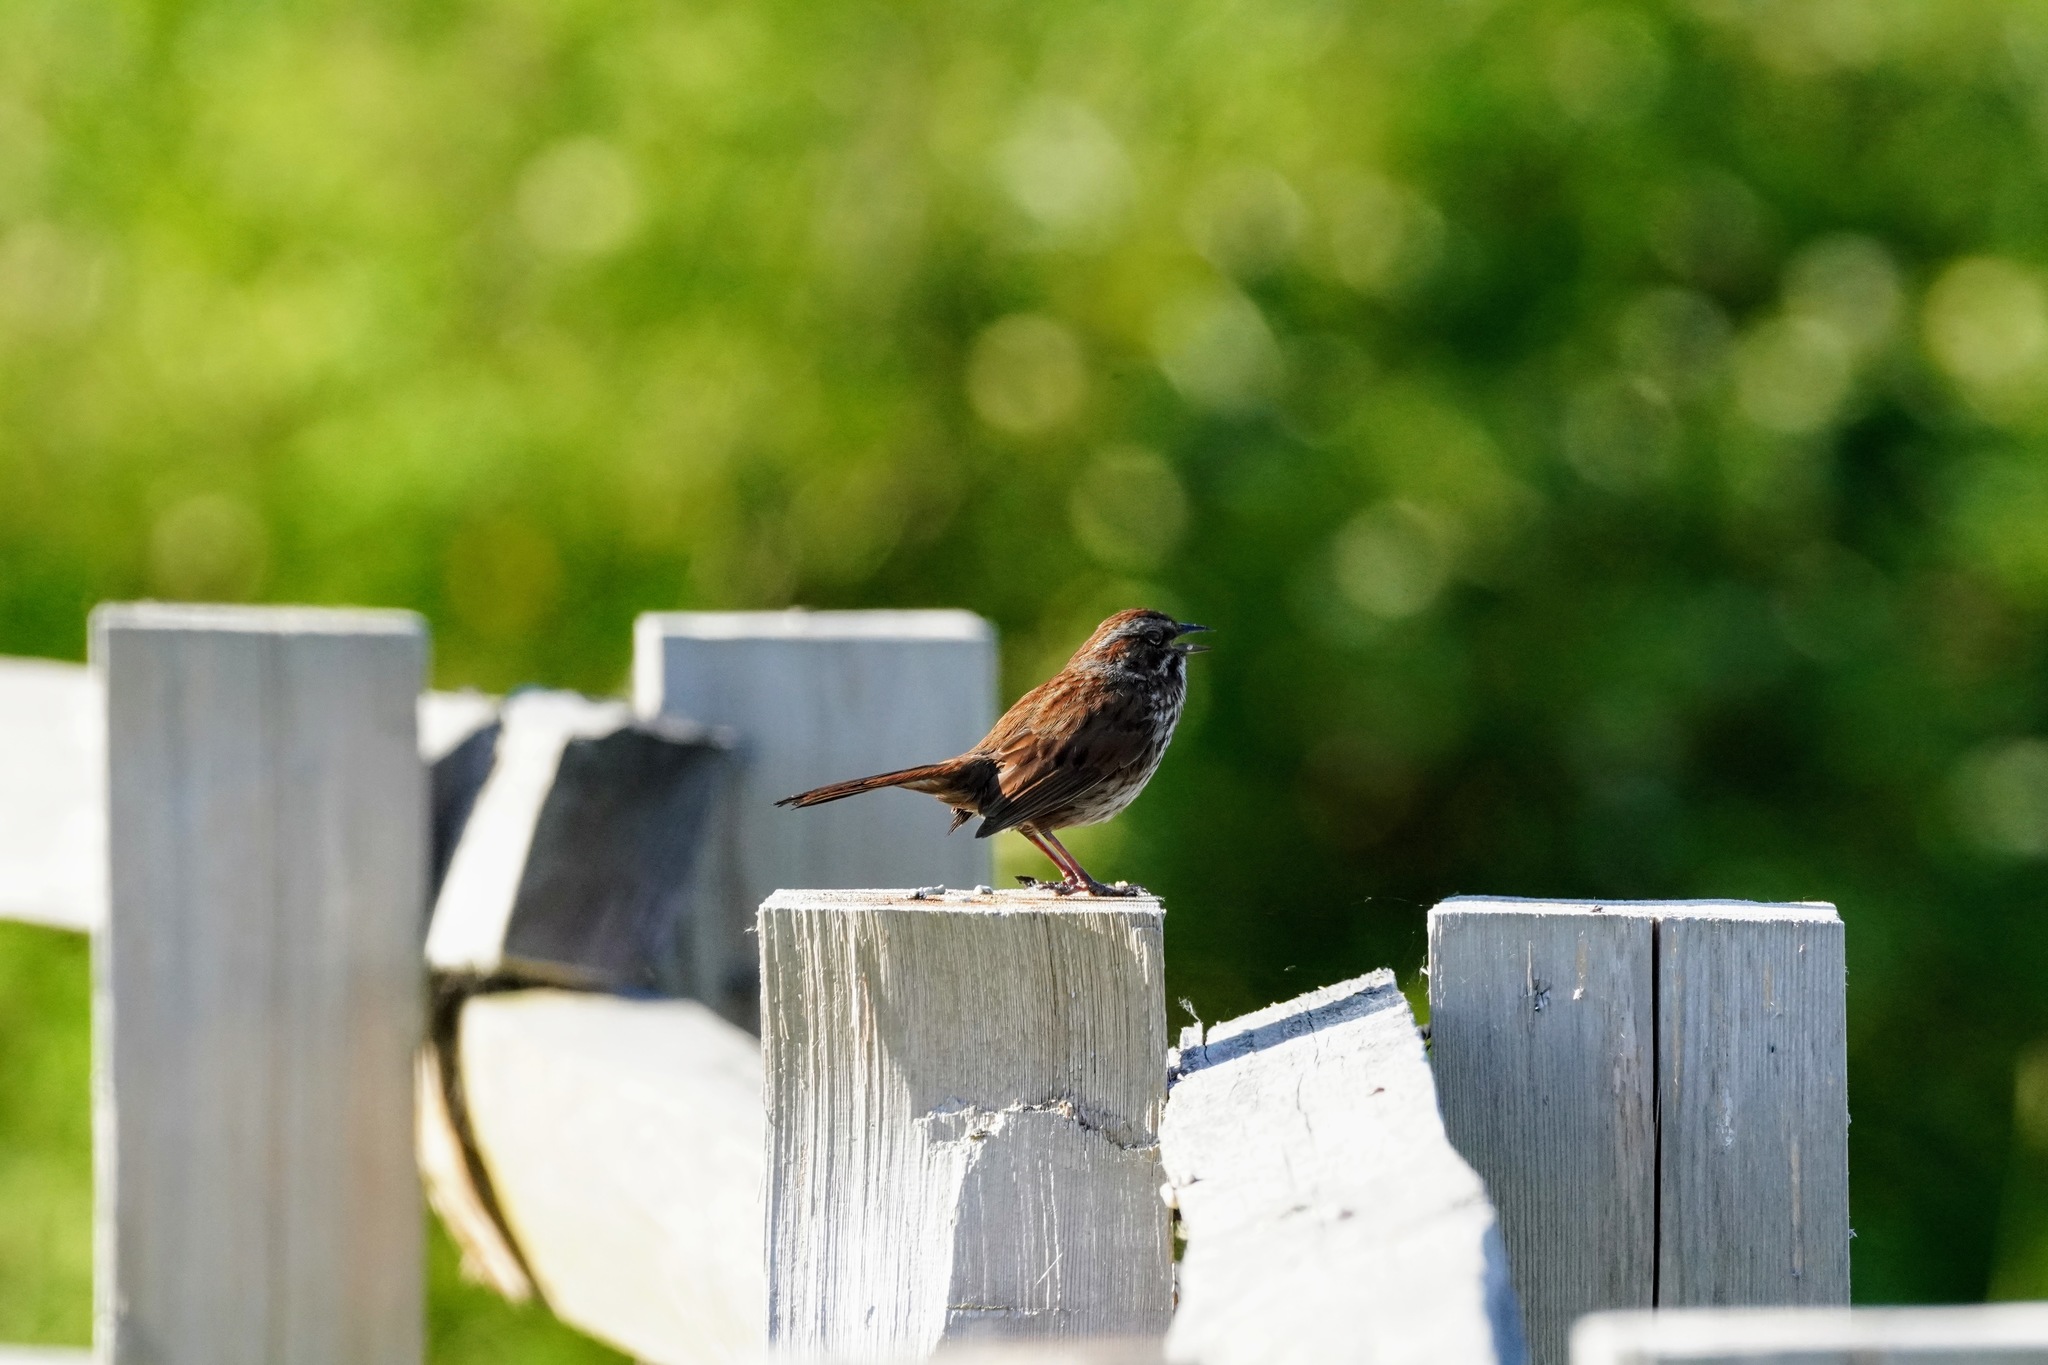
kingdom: Animalia
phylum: Chordata
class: Aves
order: Passeriformes
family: Passerellidae
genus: Melospiza
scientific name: Melospiza melodia
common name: Song sparrow
